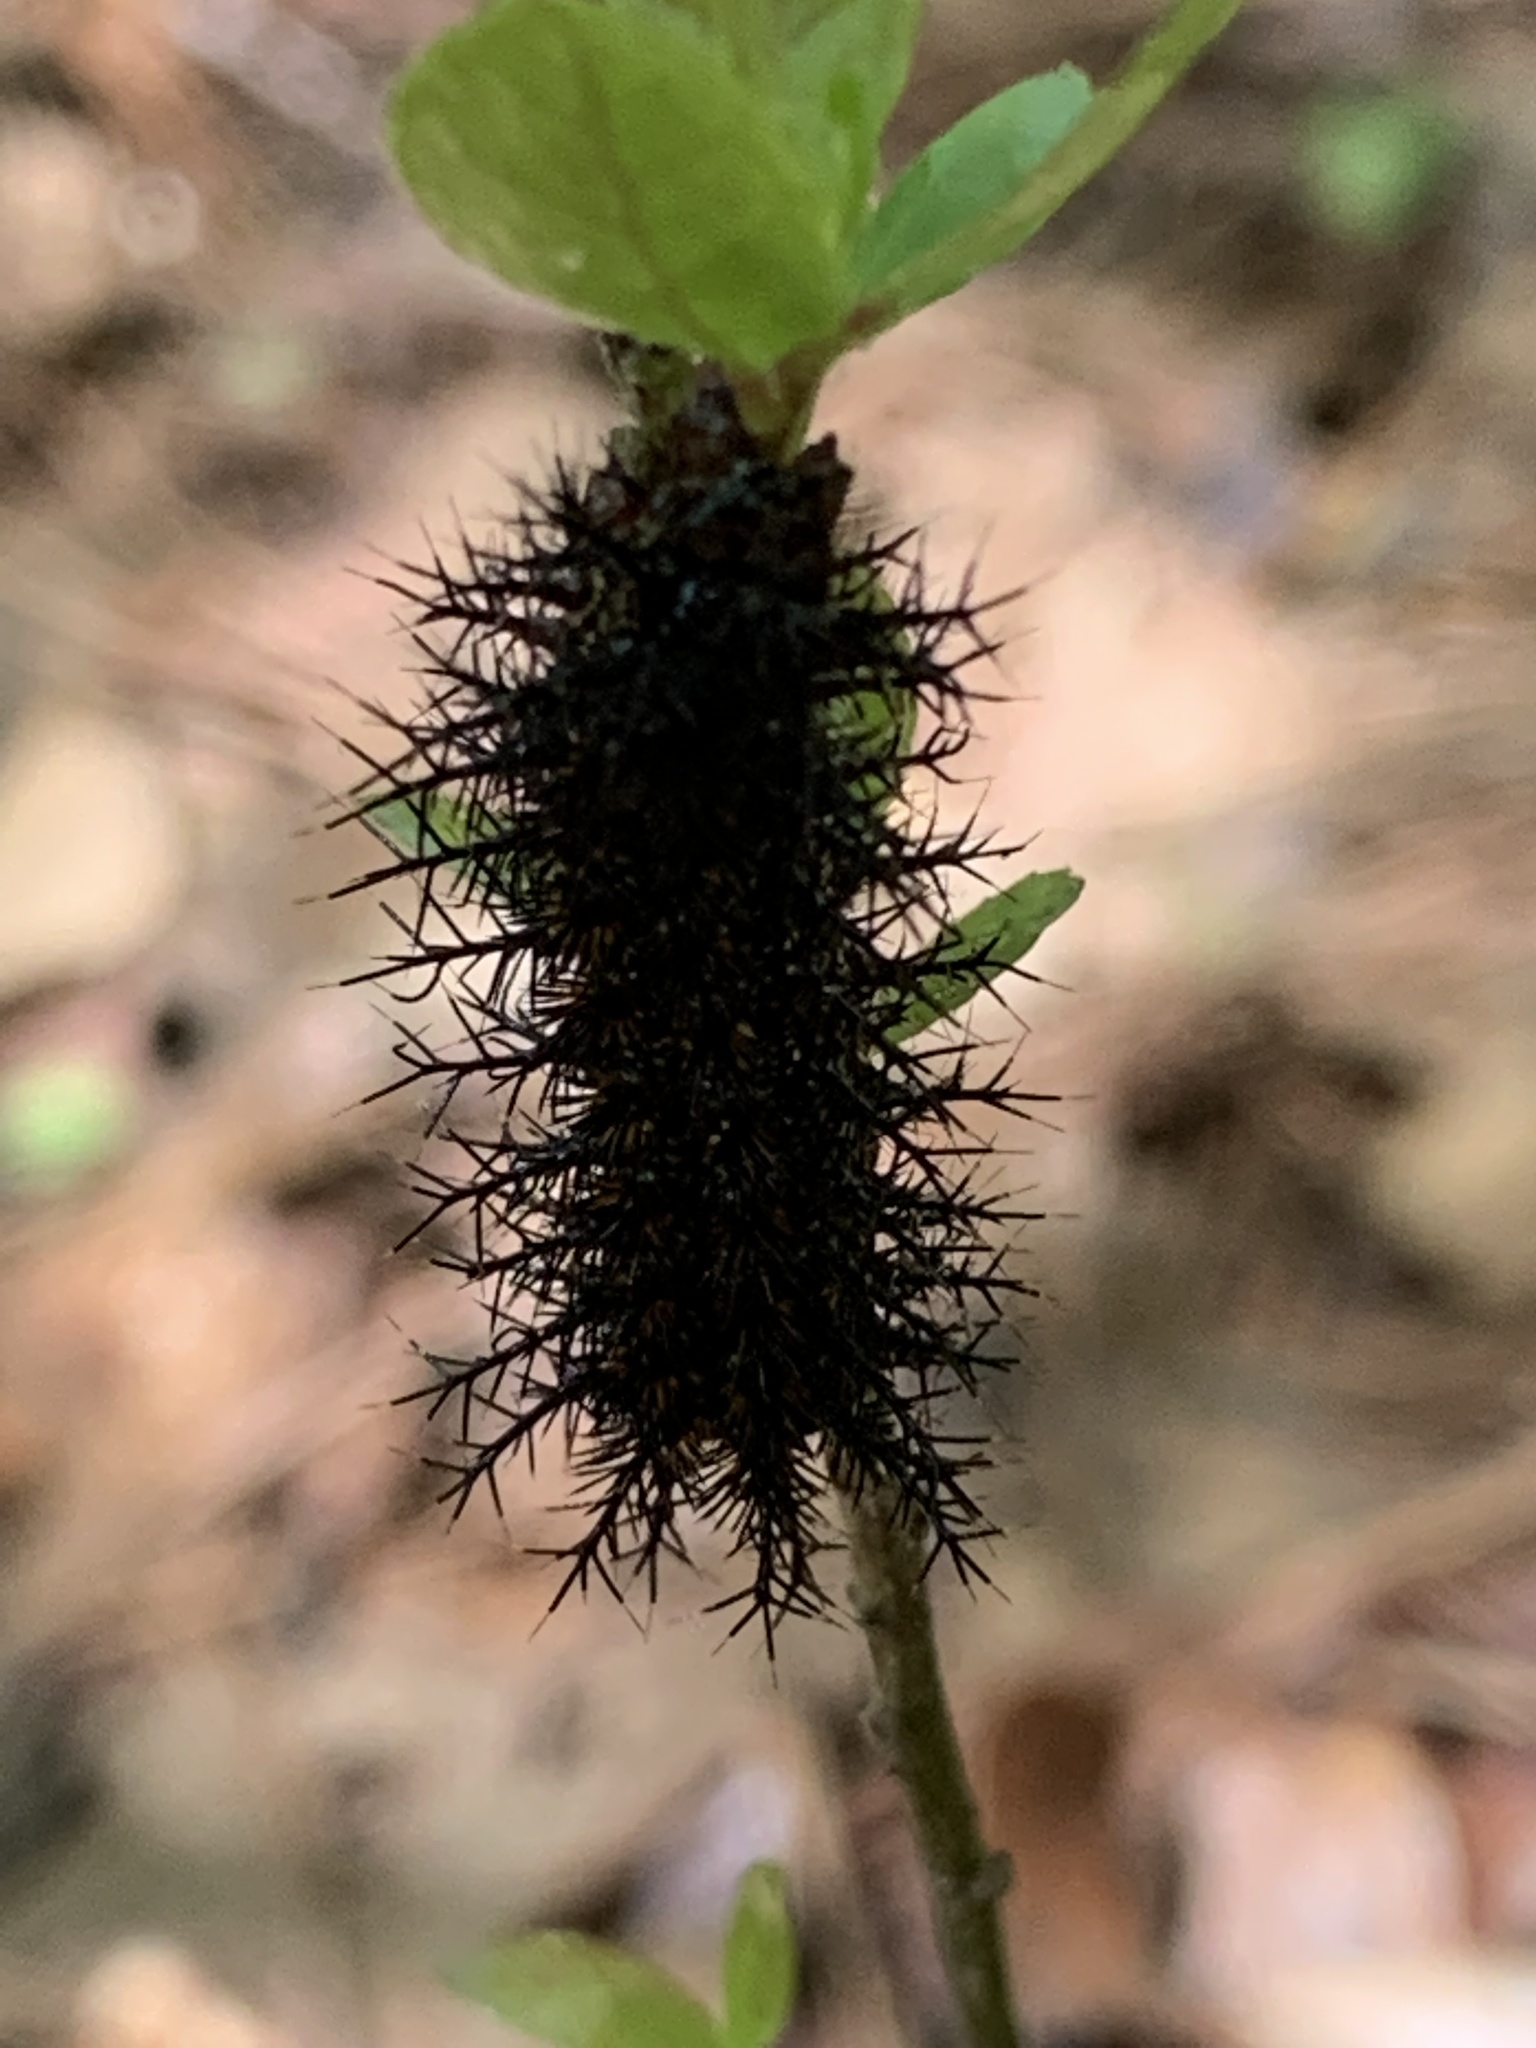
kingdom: Animalia
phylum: Arthropoda
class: Insecta
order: Lepidoptera
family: Saturniidae
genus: Hemileuca
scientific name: Hemileuca maia
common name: Eastern buckmoth
